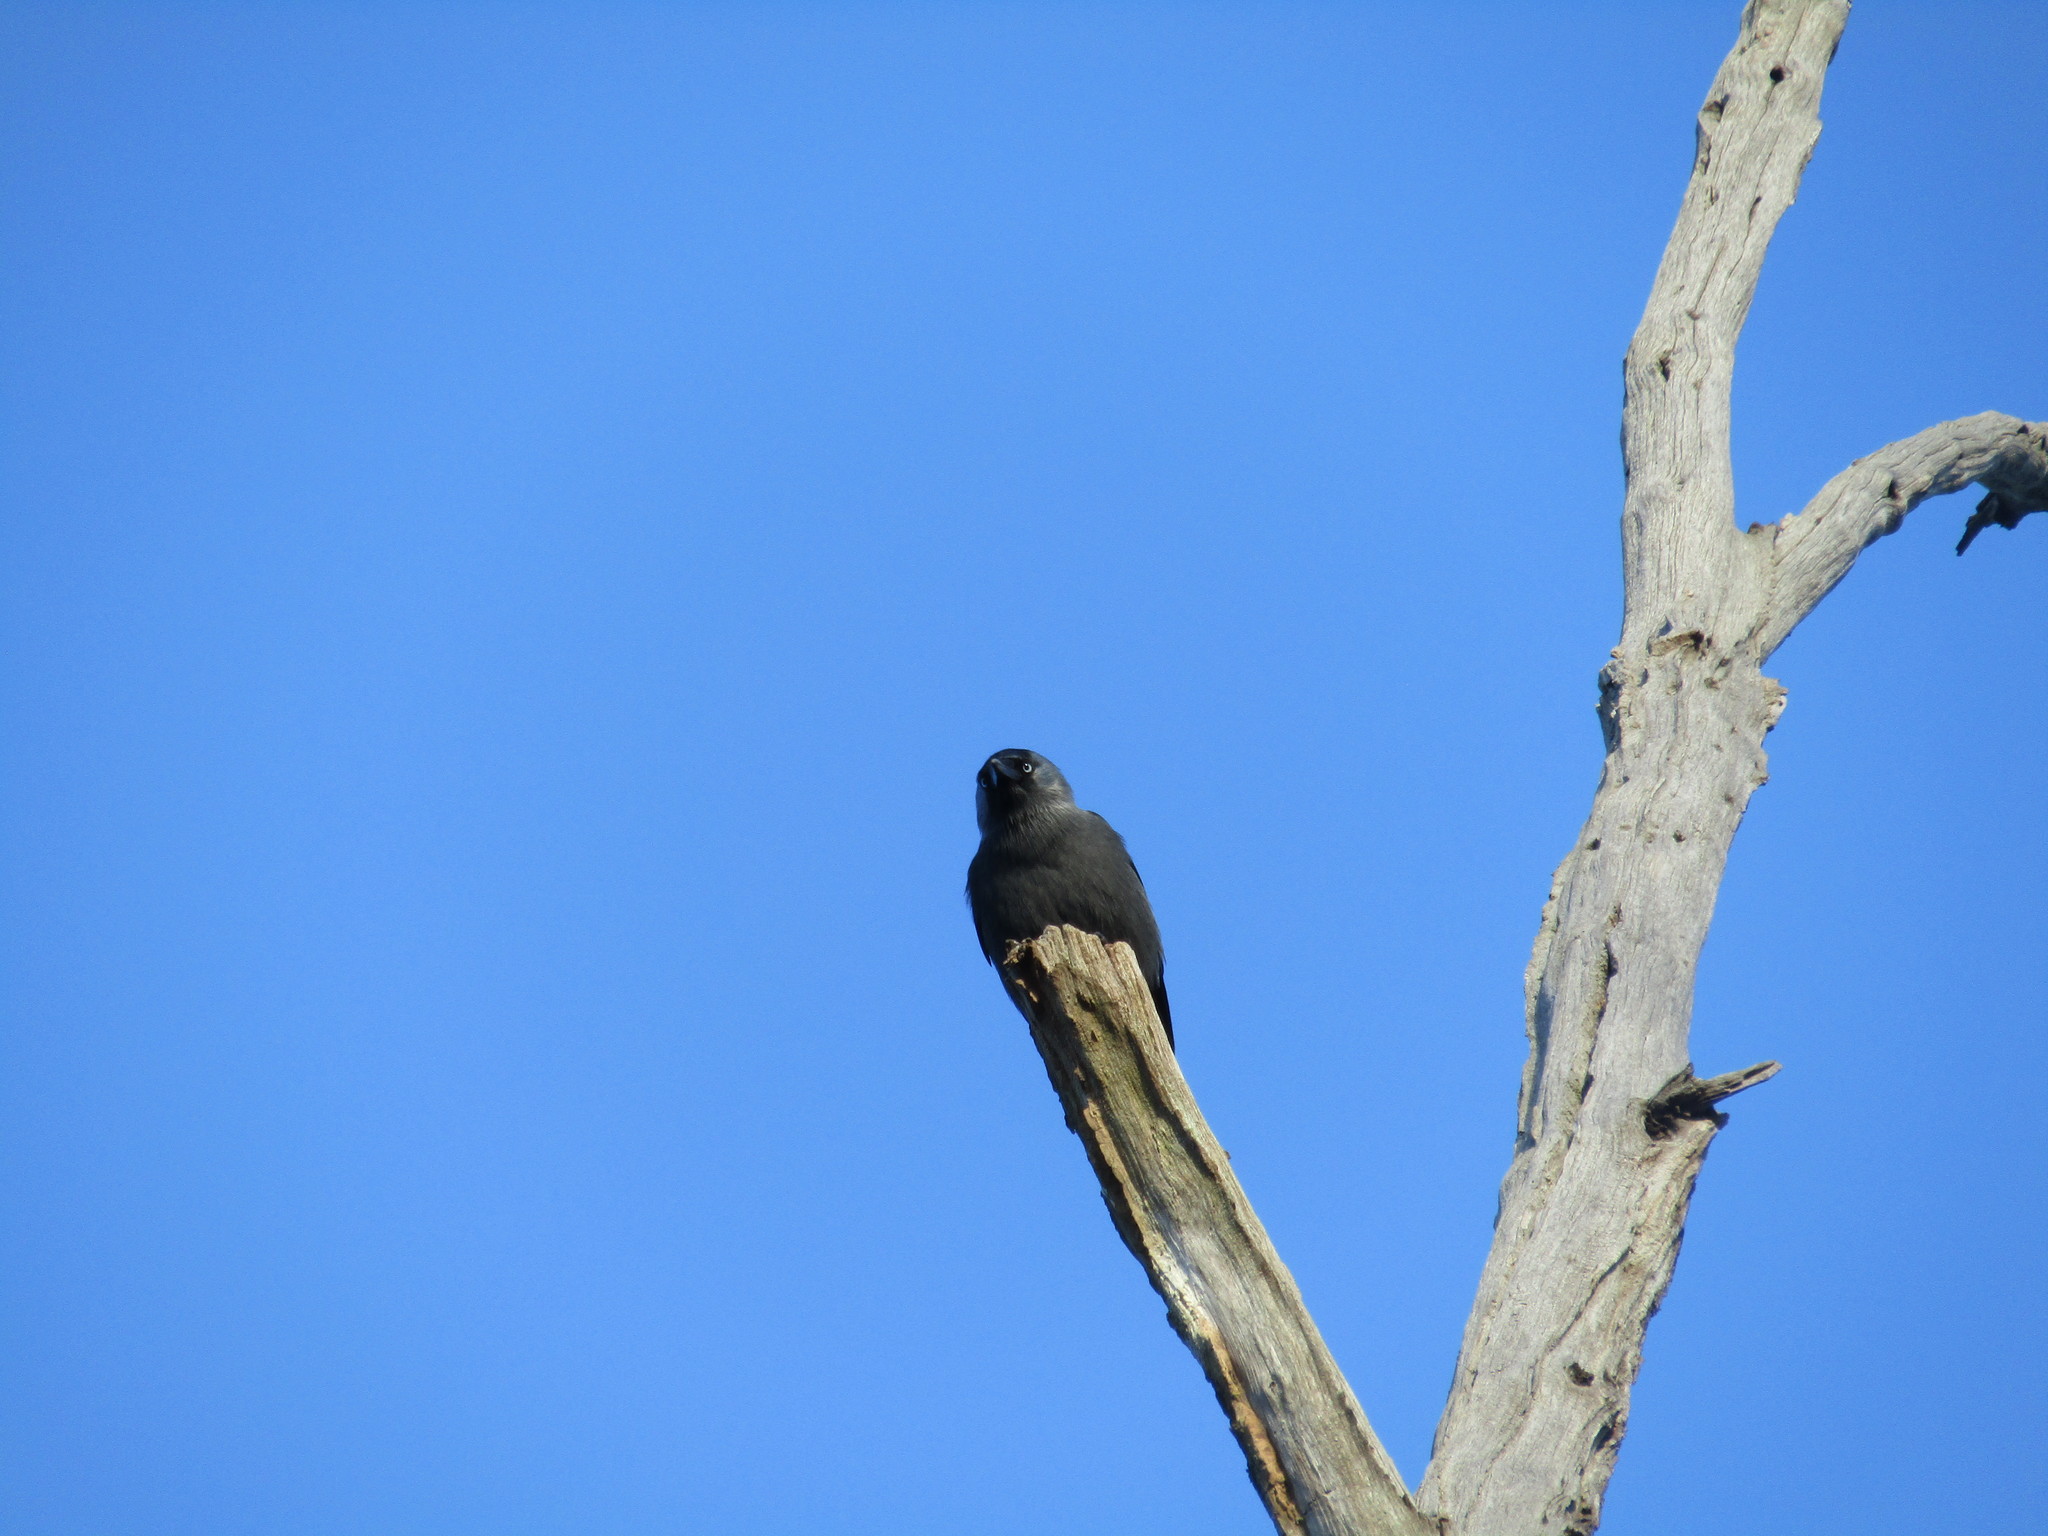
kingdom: Animalia
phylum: Chordata
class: Aves
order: Passeriformes
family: Corvidae
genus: Coloeus
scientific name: Coloeus monedula
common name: Western jackdaw
